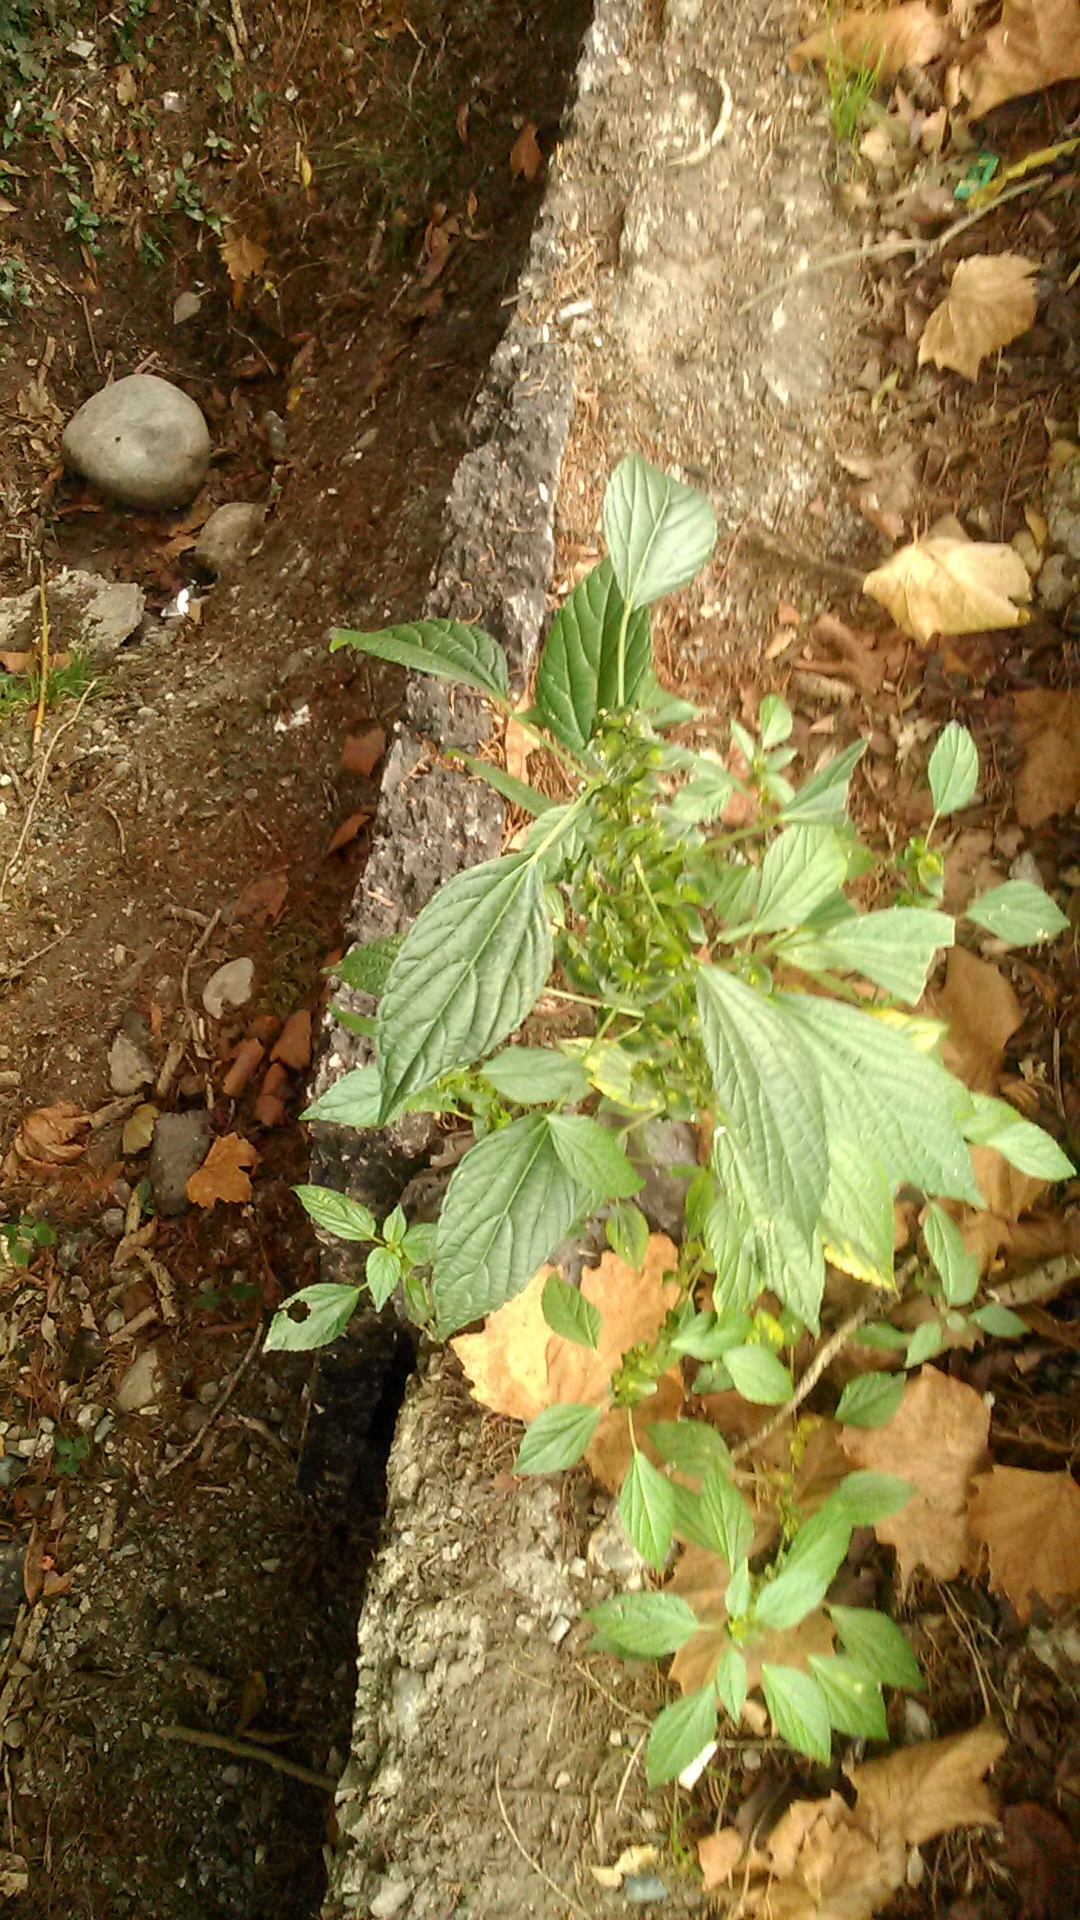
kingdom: Plantae
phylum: Tracheophyta
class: Magnoliopsida
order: Malpighiales
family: Euphorbiaceae
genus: Acalypha
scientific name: Acalypha australis
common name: Asian copperleaf
